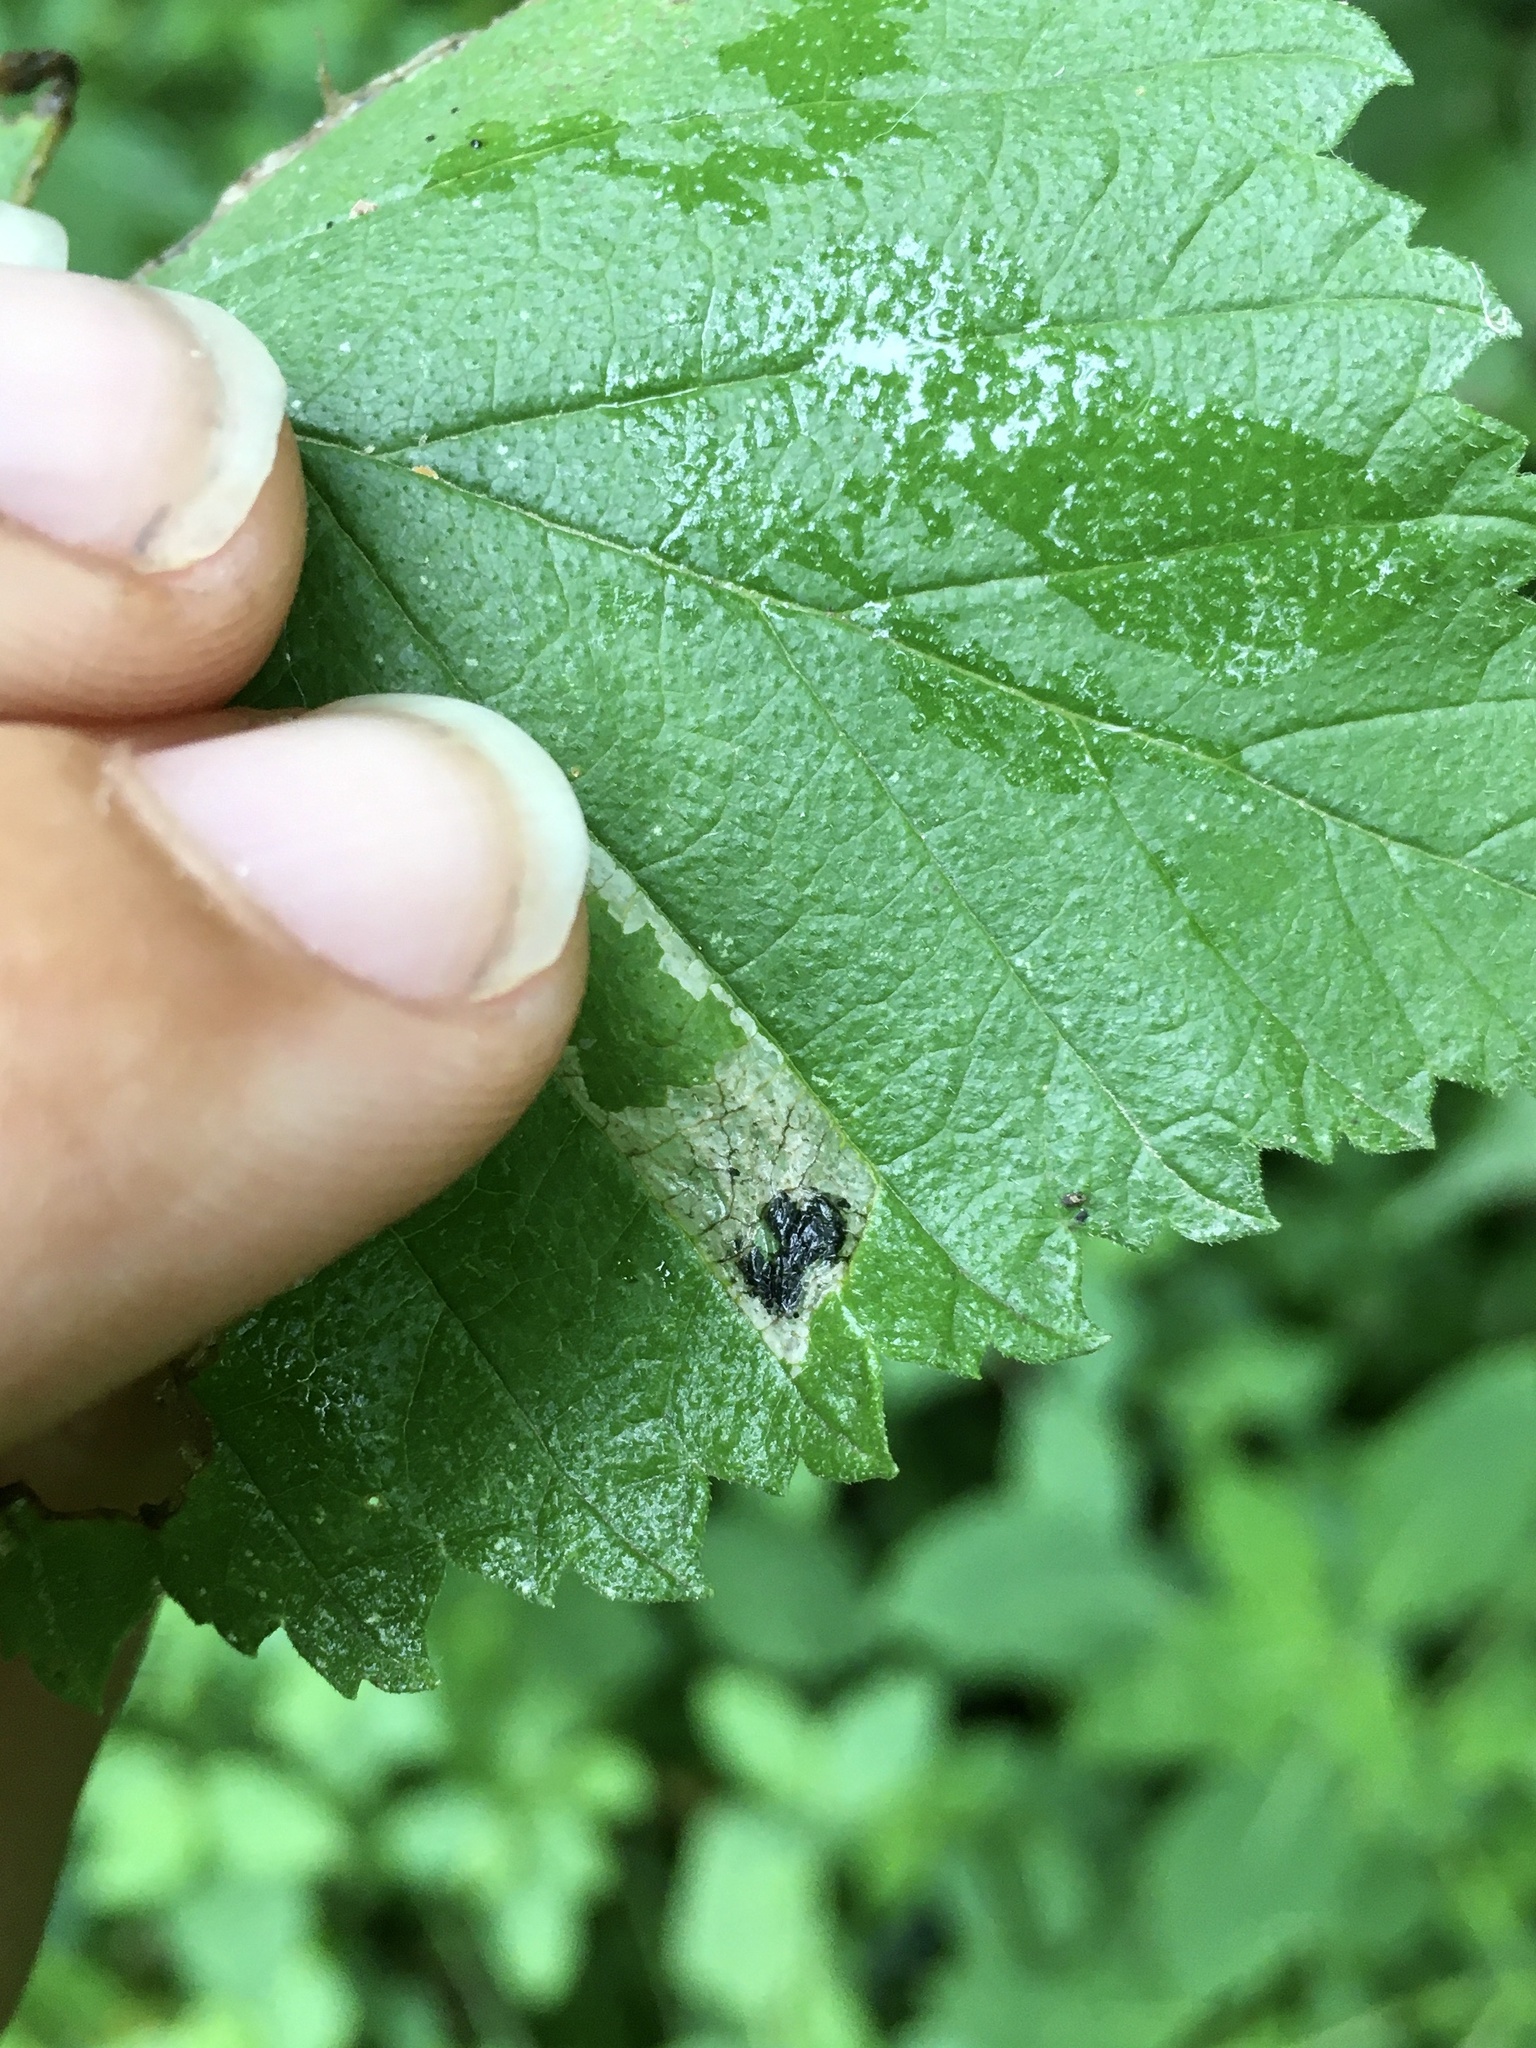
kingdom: Animalia
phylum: Arthropoda
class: Insecta
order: Lepidoptera
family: Gracillariidae
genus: Phyllonorycter
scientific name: Phyllonorycter argentinotella
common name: Golden elm leafminer
